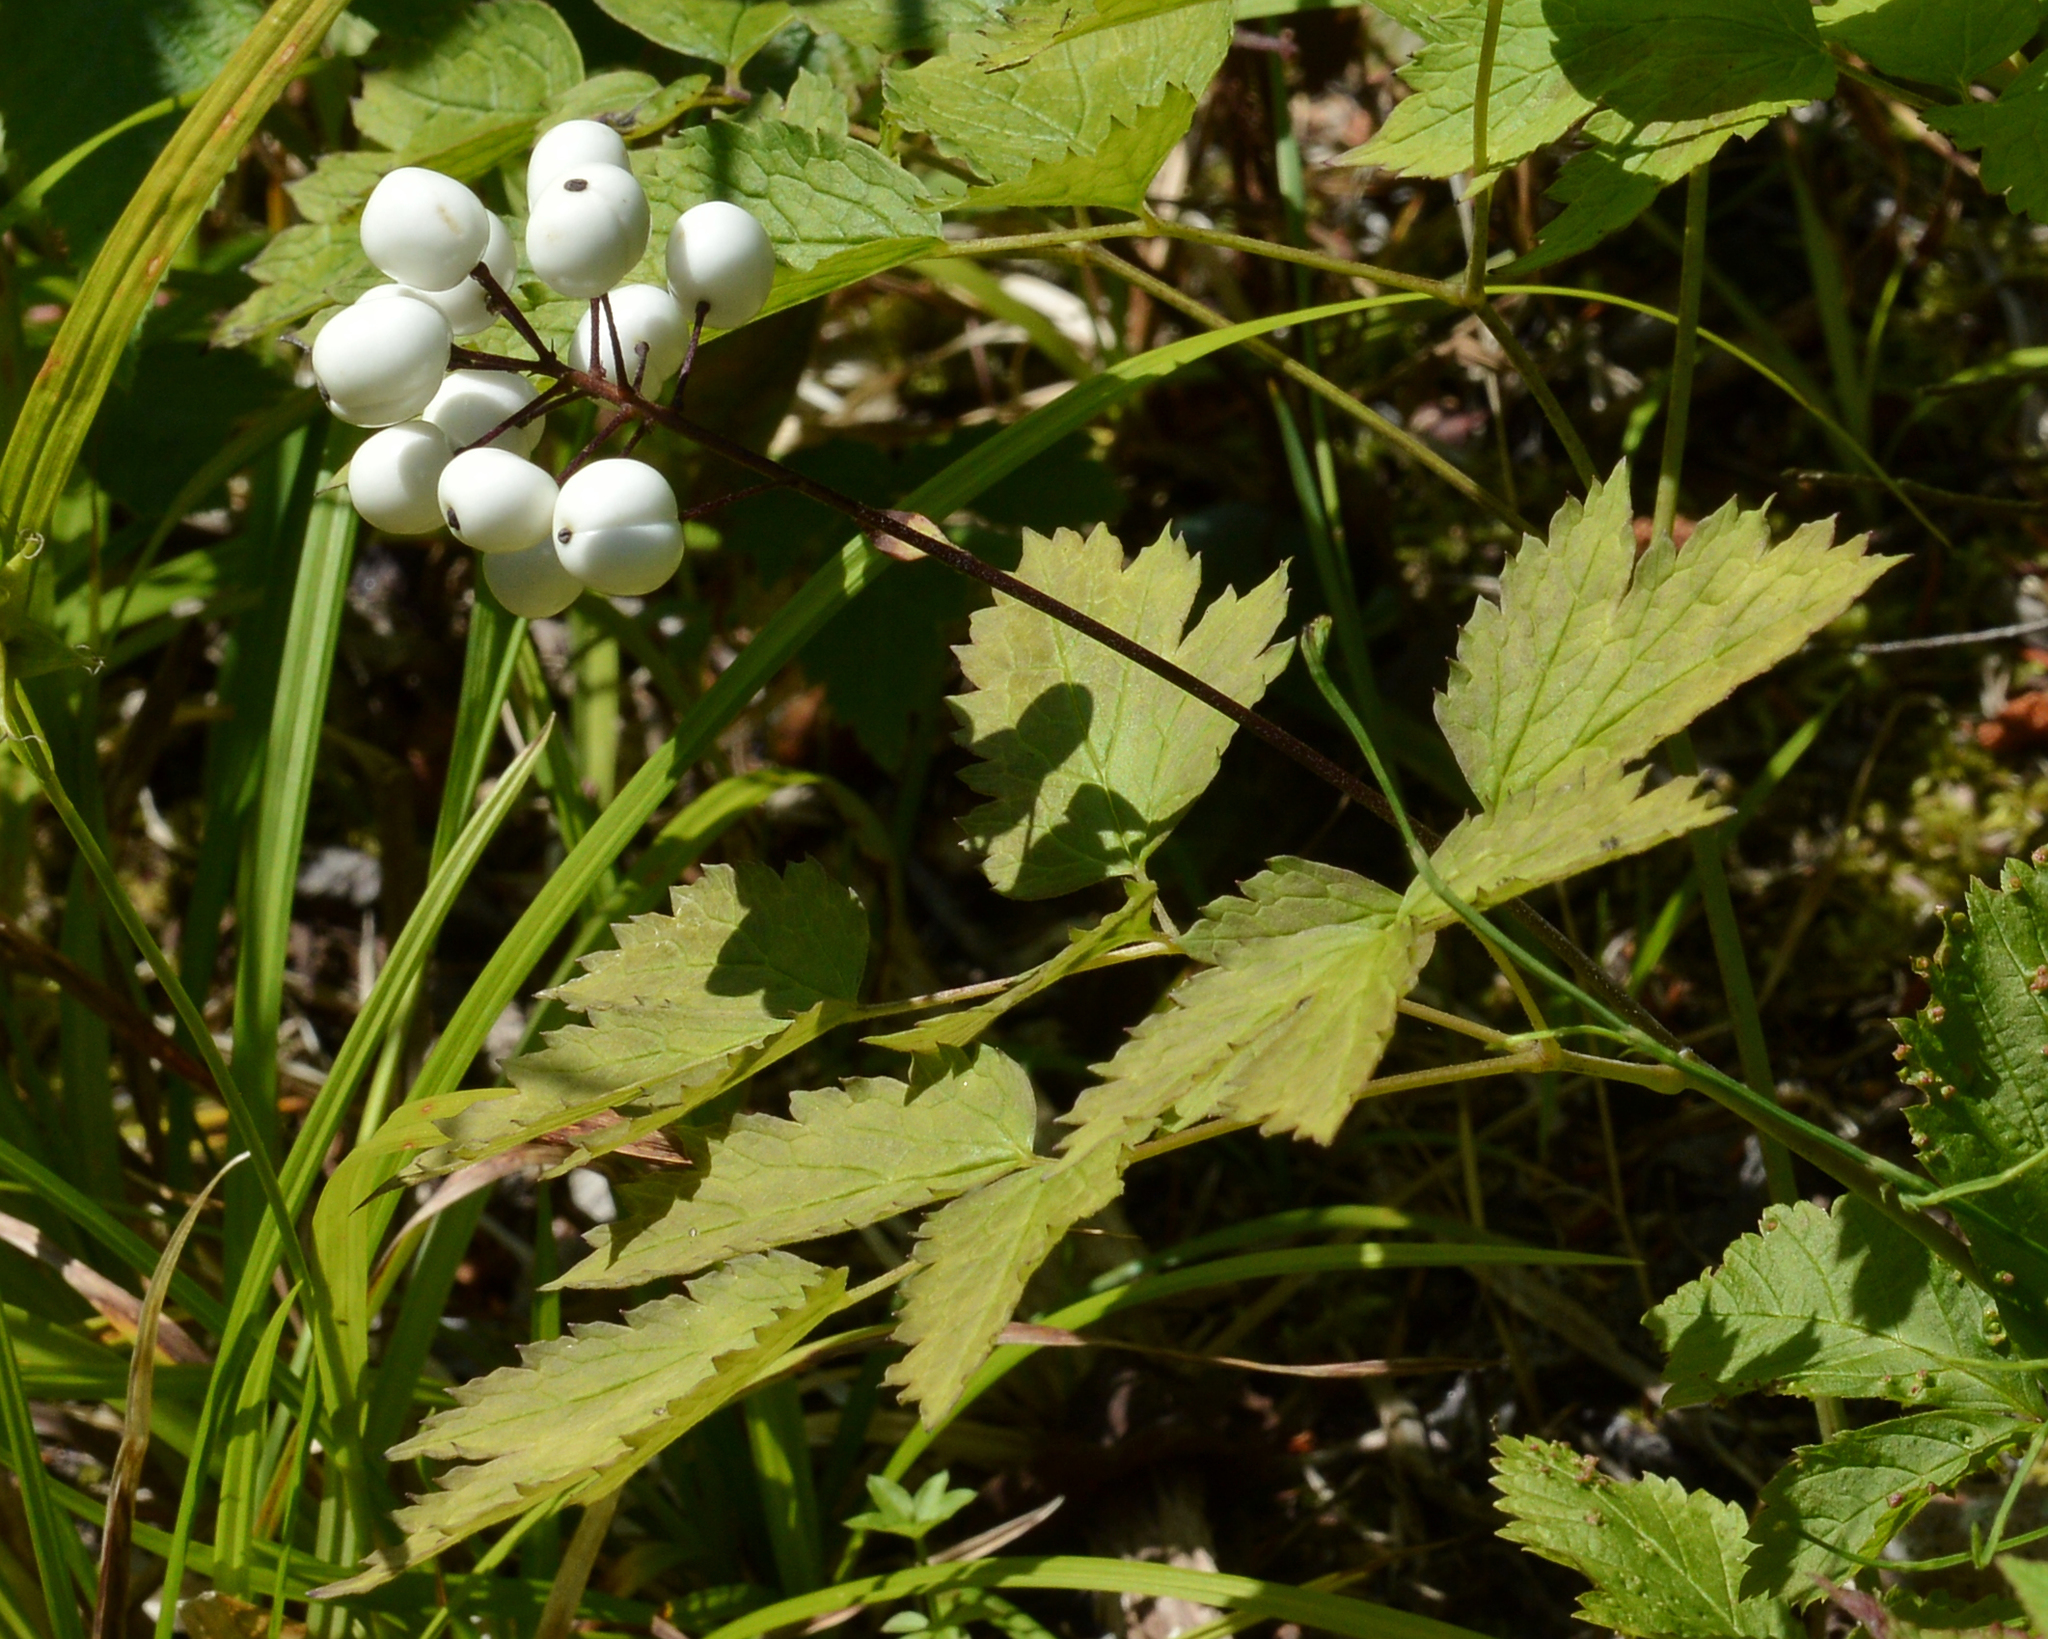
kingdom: Plantae
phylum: Tracheophyta
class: Magnoliopsida
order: Ranunculales
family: Ranunculaceae
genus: Actaea
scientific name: Actaea rubra
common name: Red baneberry
